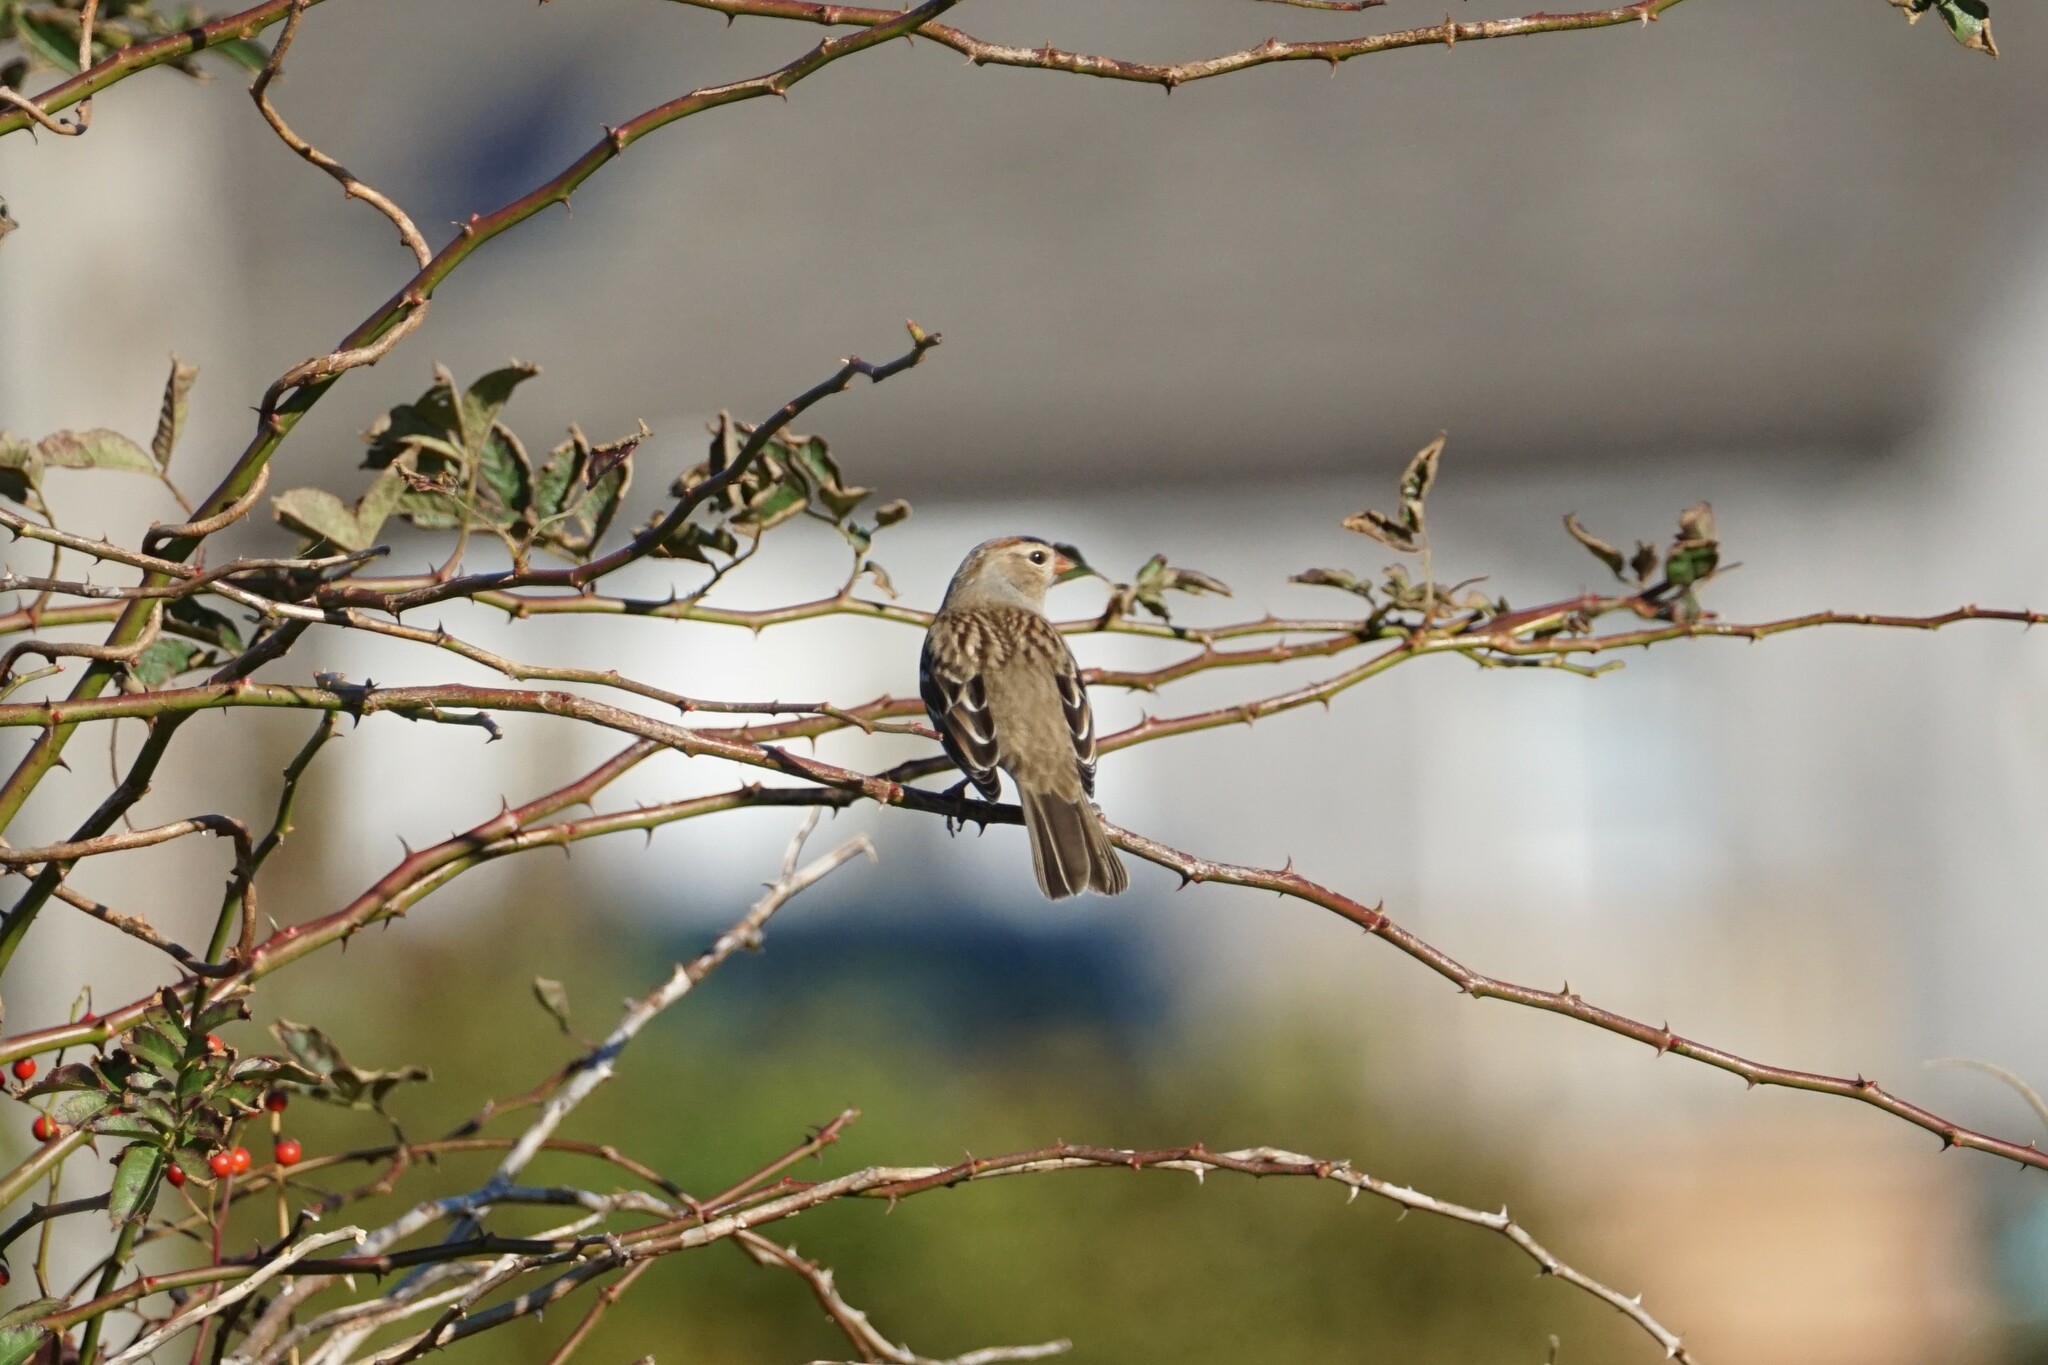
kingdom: Animalia
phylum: Chordata
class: Aves
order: Passeriformes
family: Passerellidae
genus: Zonotrichia
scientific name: Zonotrichia leucophrys
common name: White-crowned sparrow
